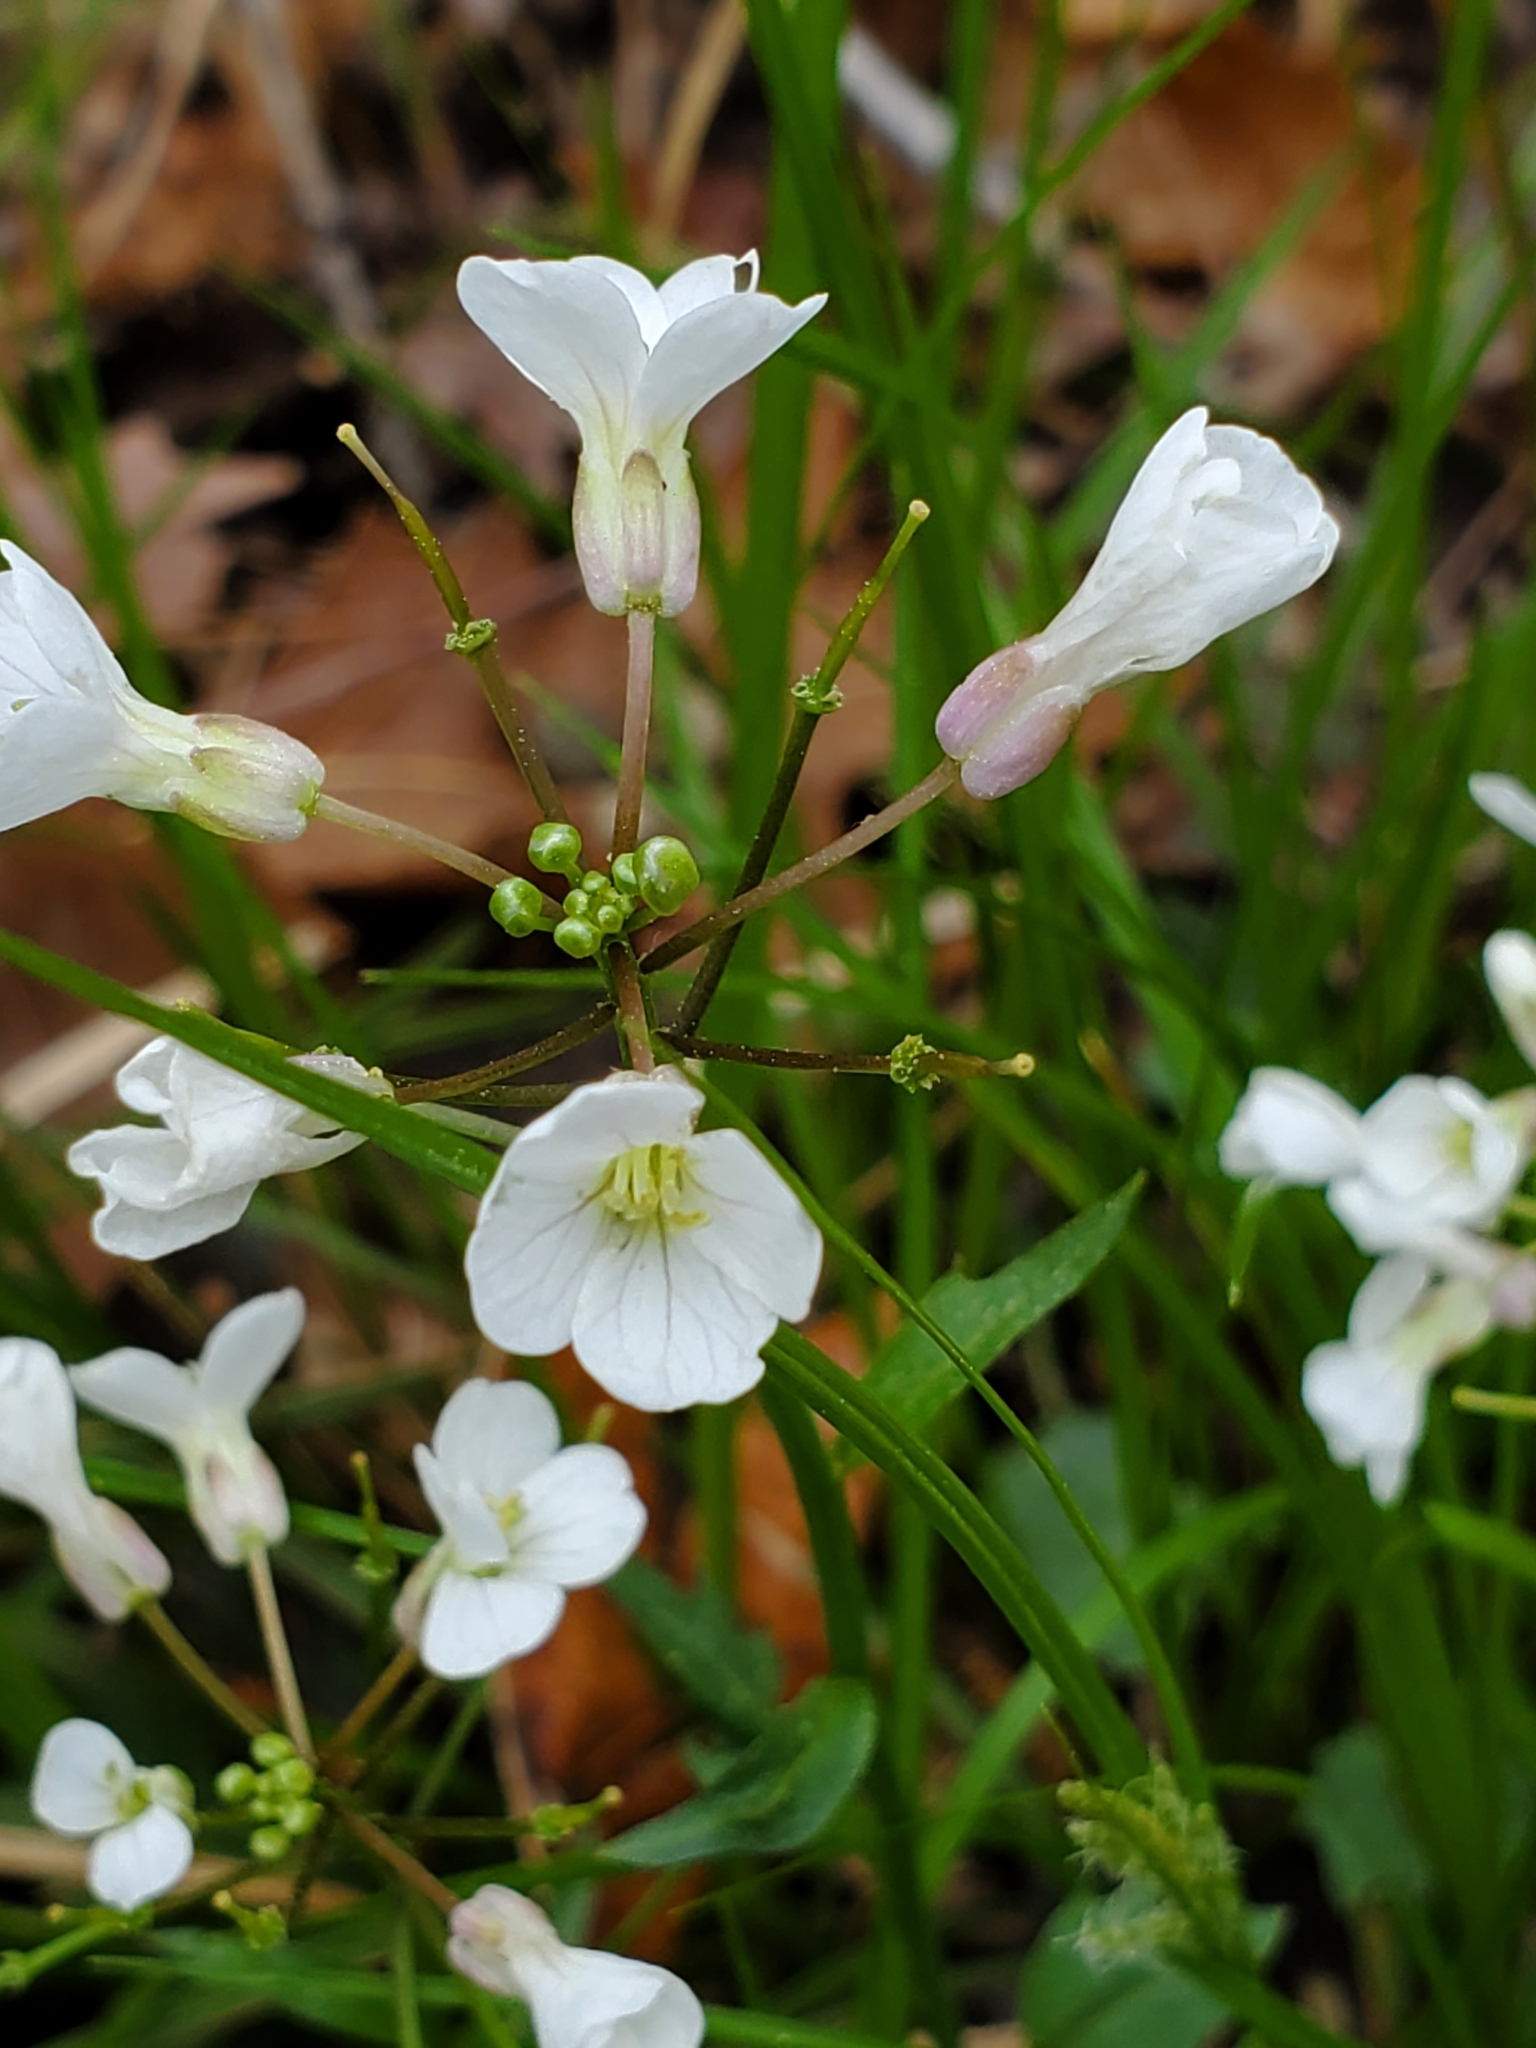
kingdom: Plantae
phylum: Tracheophyta
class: Magnoliopsida
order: Brassicales
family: Brassicaceae
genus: Cardamine
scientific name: Cardamine bulbosa
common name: Spring cress
